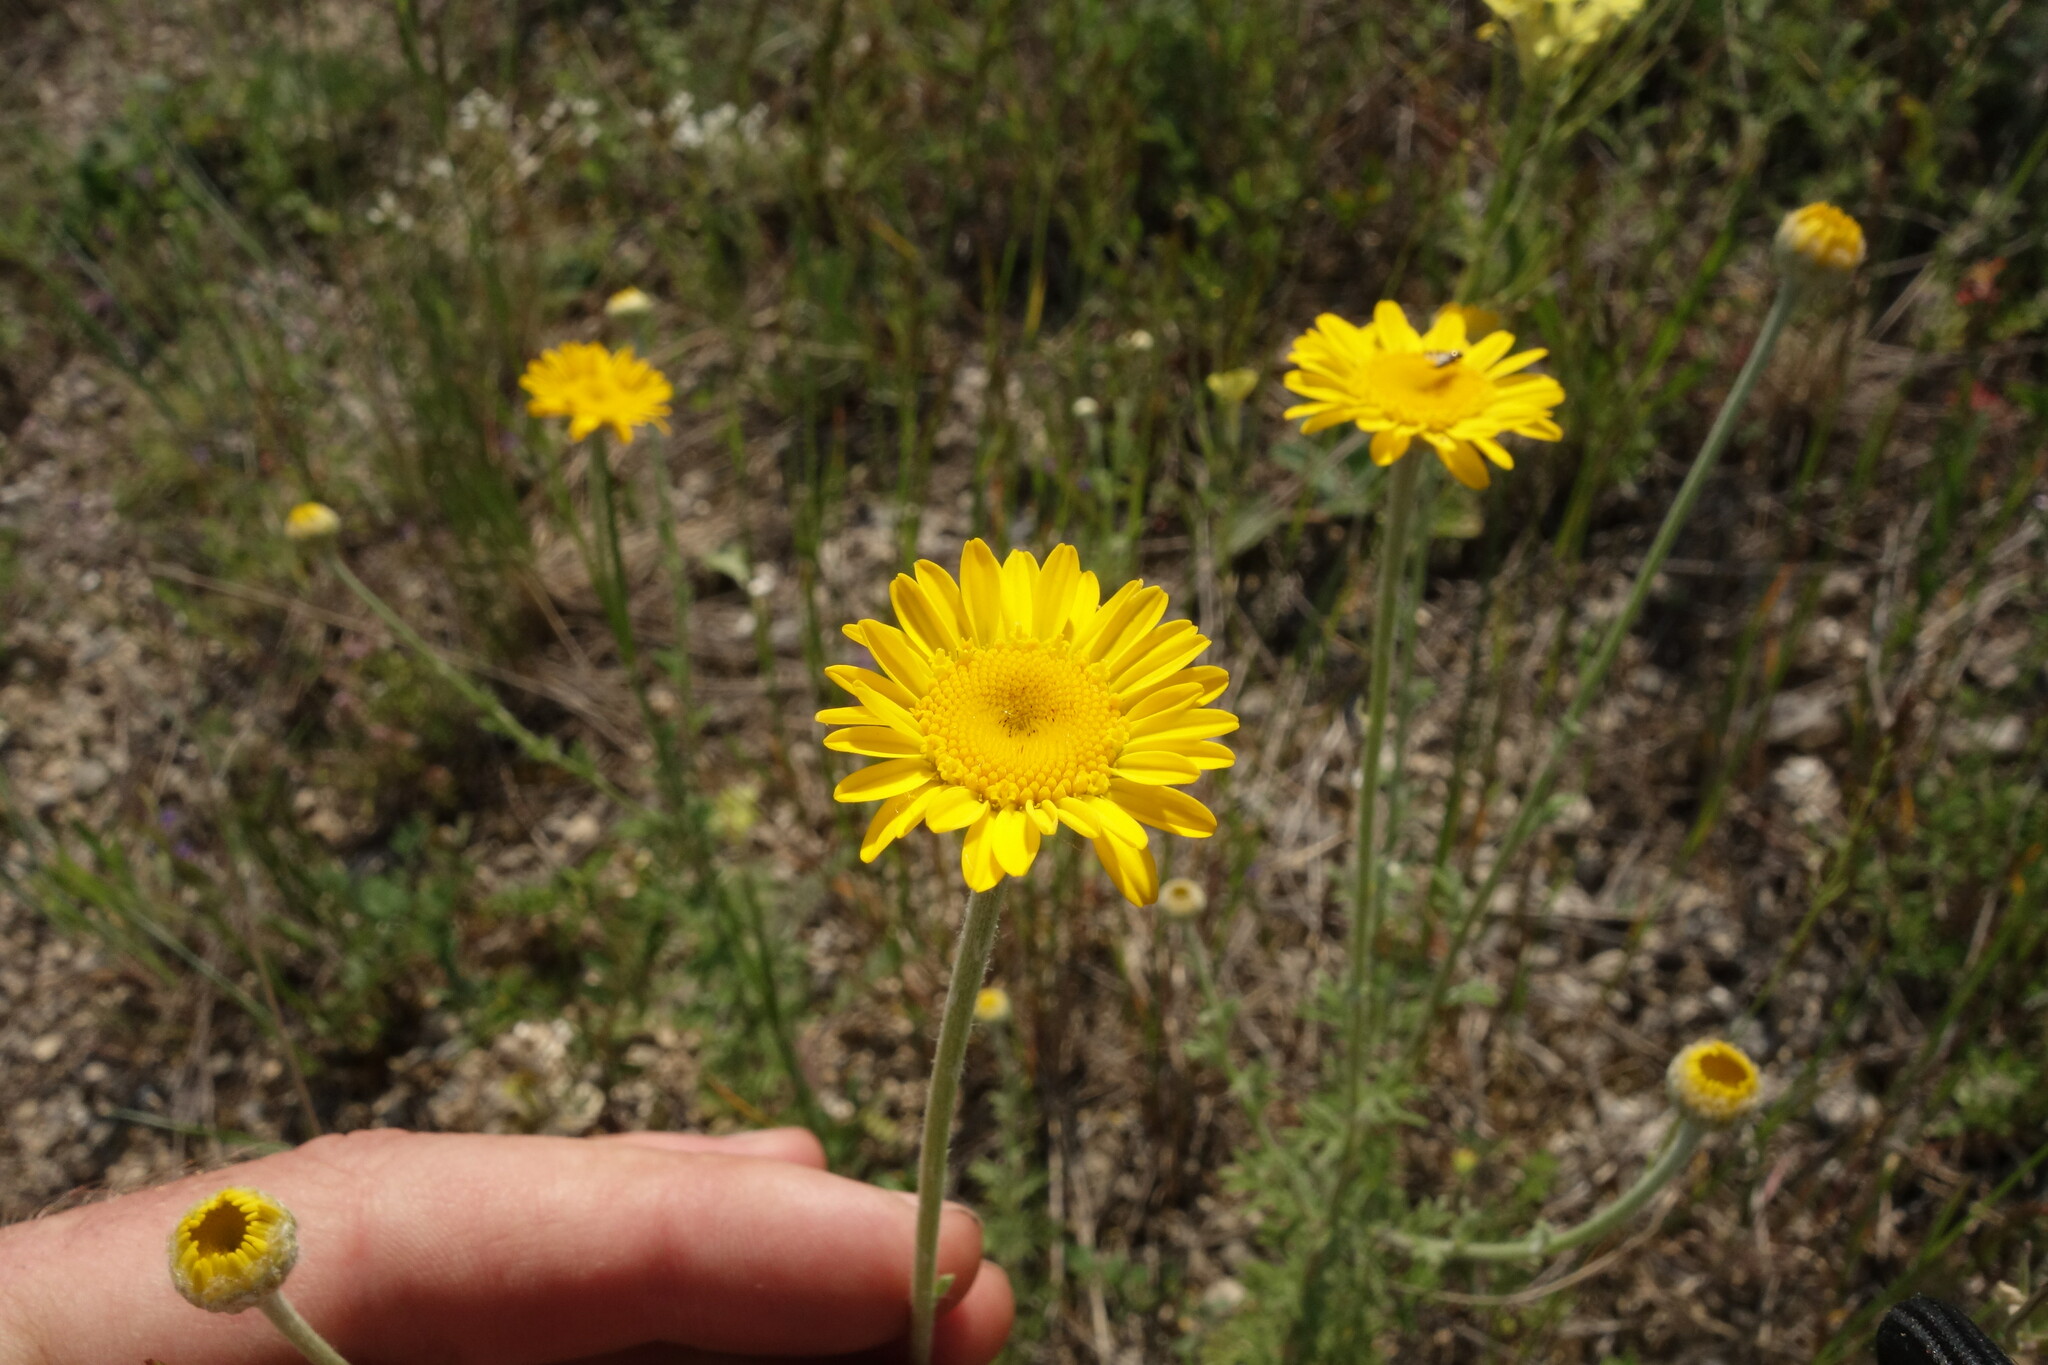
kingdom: Plantae
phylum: Tracheophyta
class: Magnoliopsida
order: Asterales
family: Asteraceae
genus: Cota
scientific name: Cota tinctoria
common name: Golden chamomile
